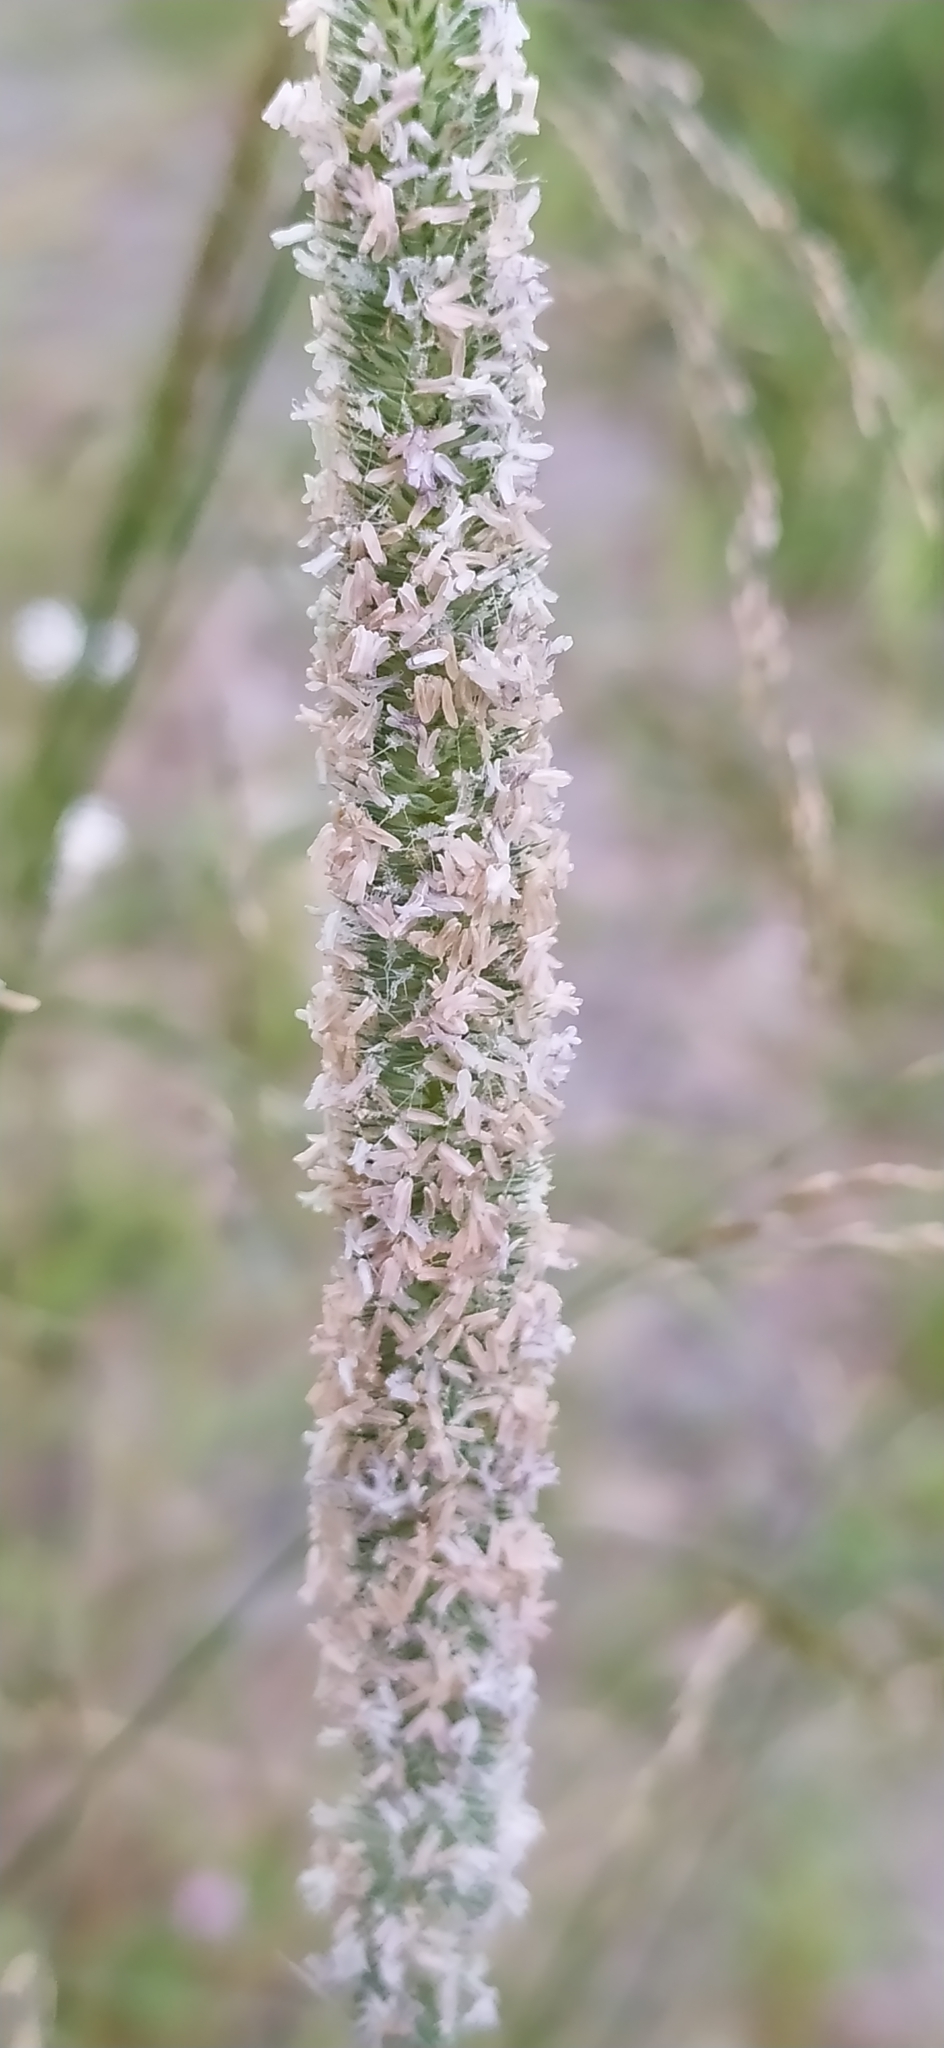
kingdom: Plantae
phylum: Tracheophyta
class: Liliopsida
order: Poales
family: Poaceae
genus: Phleum
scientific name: Phleum pratense
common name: Timothy grass
